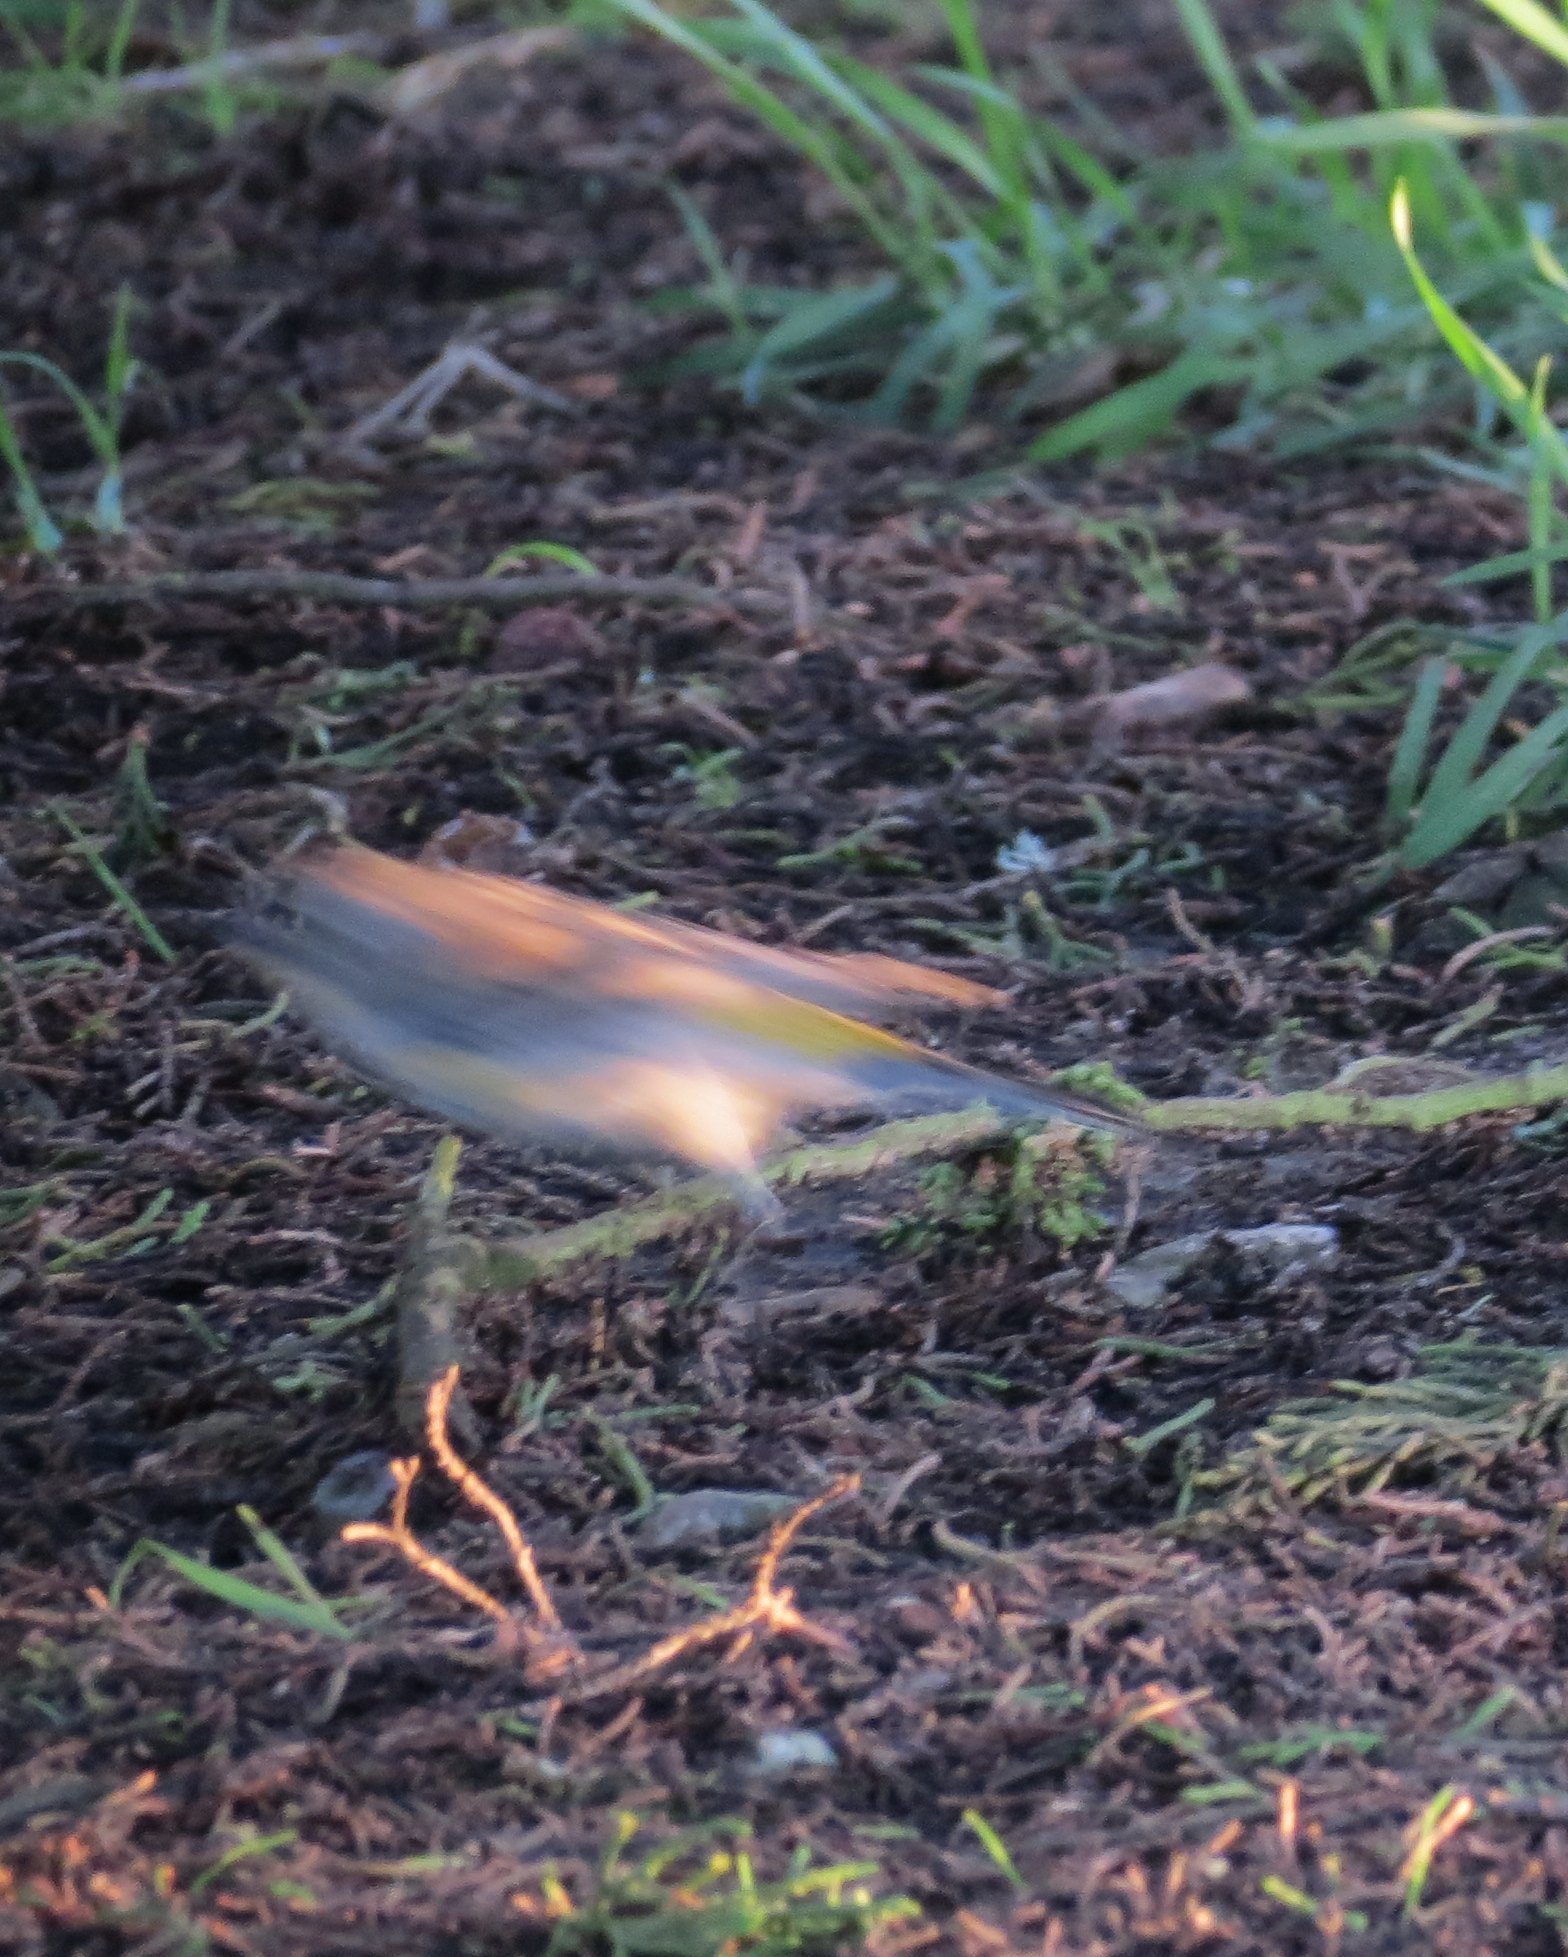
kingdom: Animalia
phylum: Chordata
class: Aves
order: Passeriformes
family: Parulidae
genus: Setophaga
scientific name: Setophaga coronata
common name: Myrtle warbler
